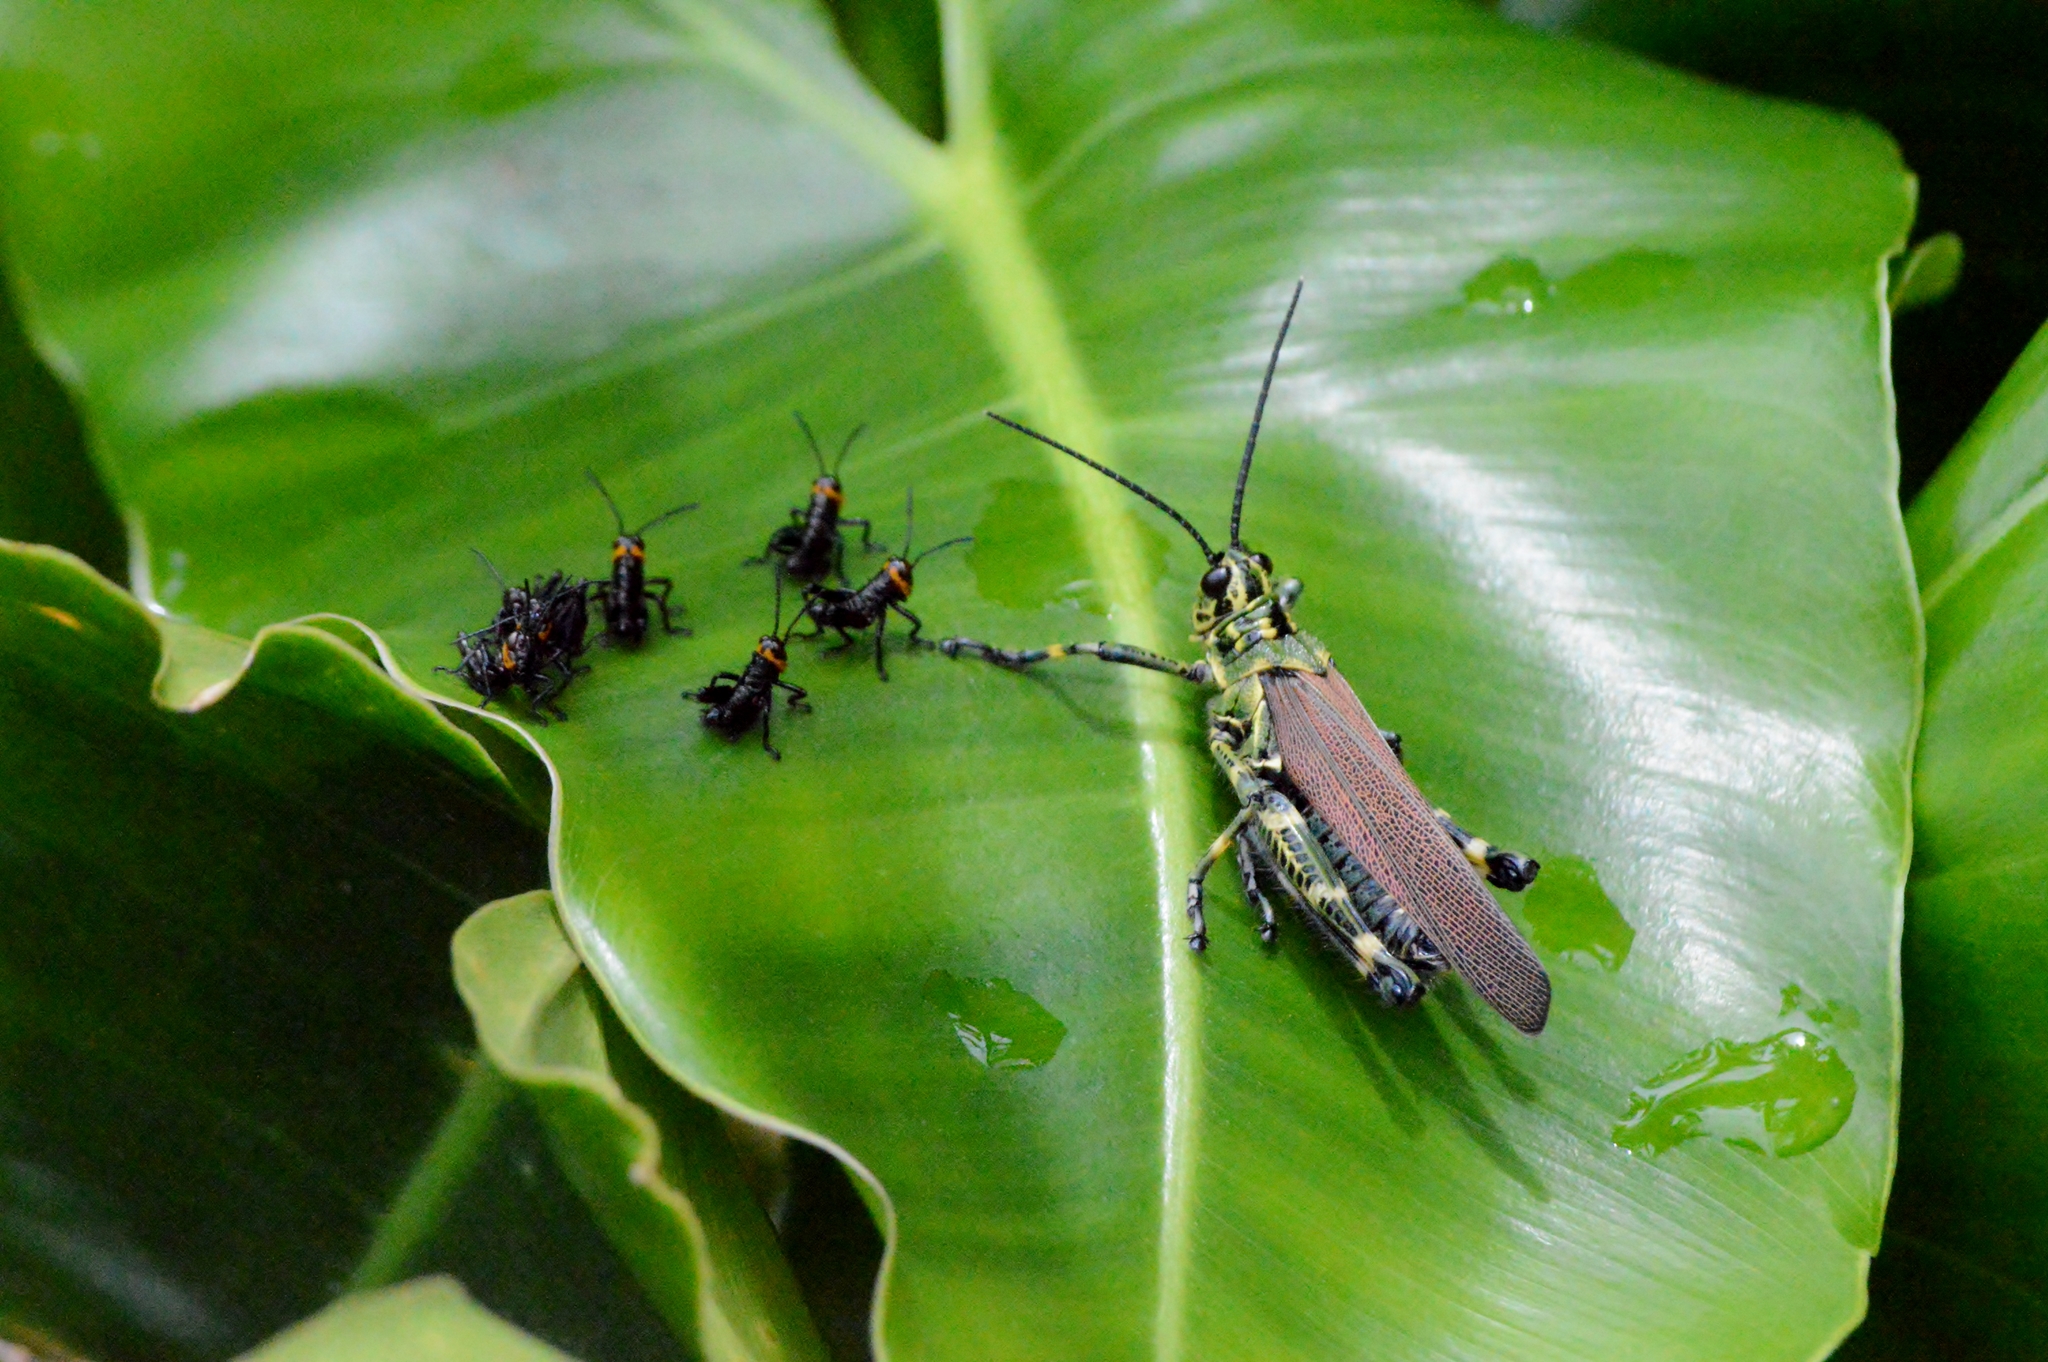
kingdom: Animalia
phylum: Arthropoda
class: Insecta
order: Orthoptera
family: Romaleidae
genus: Chromacris
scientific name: Chromacris speciosa
